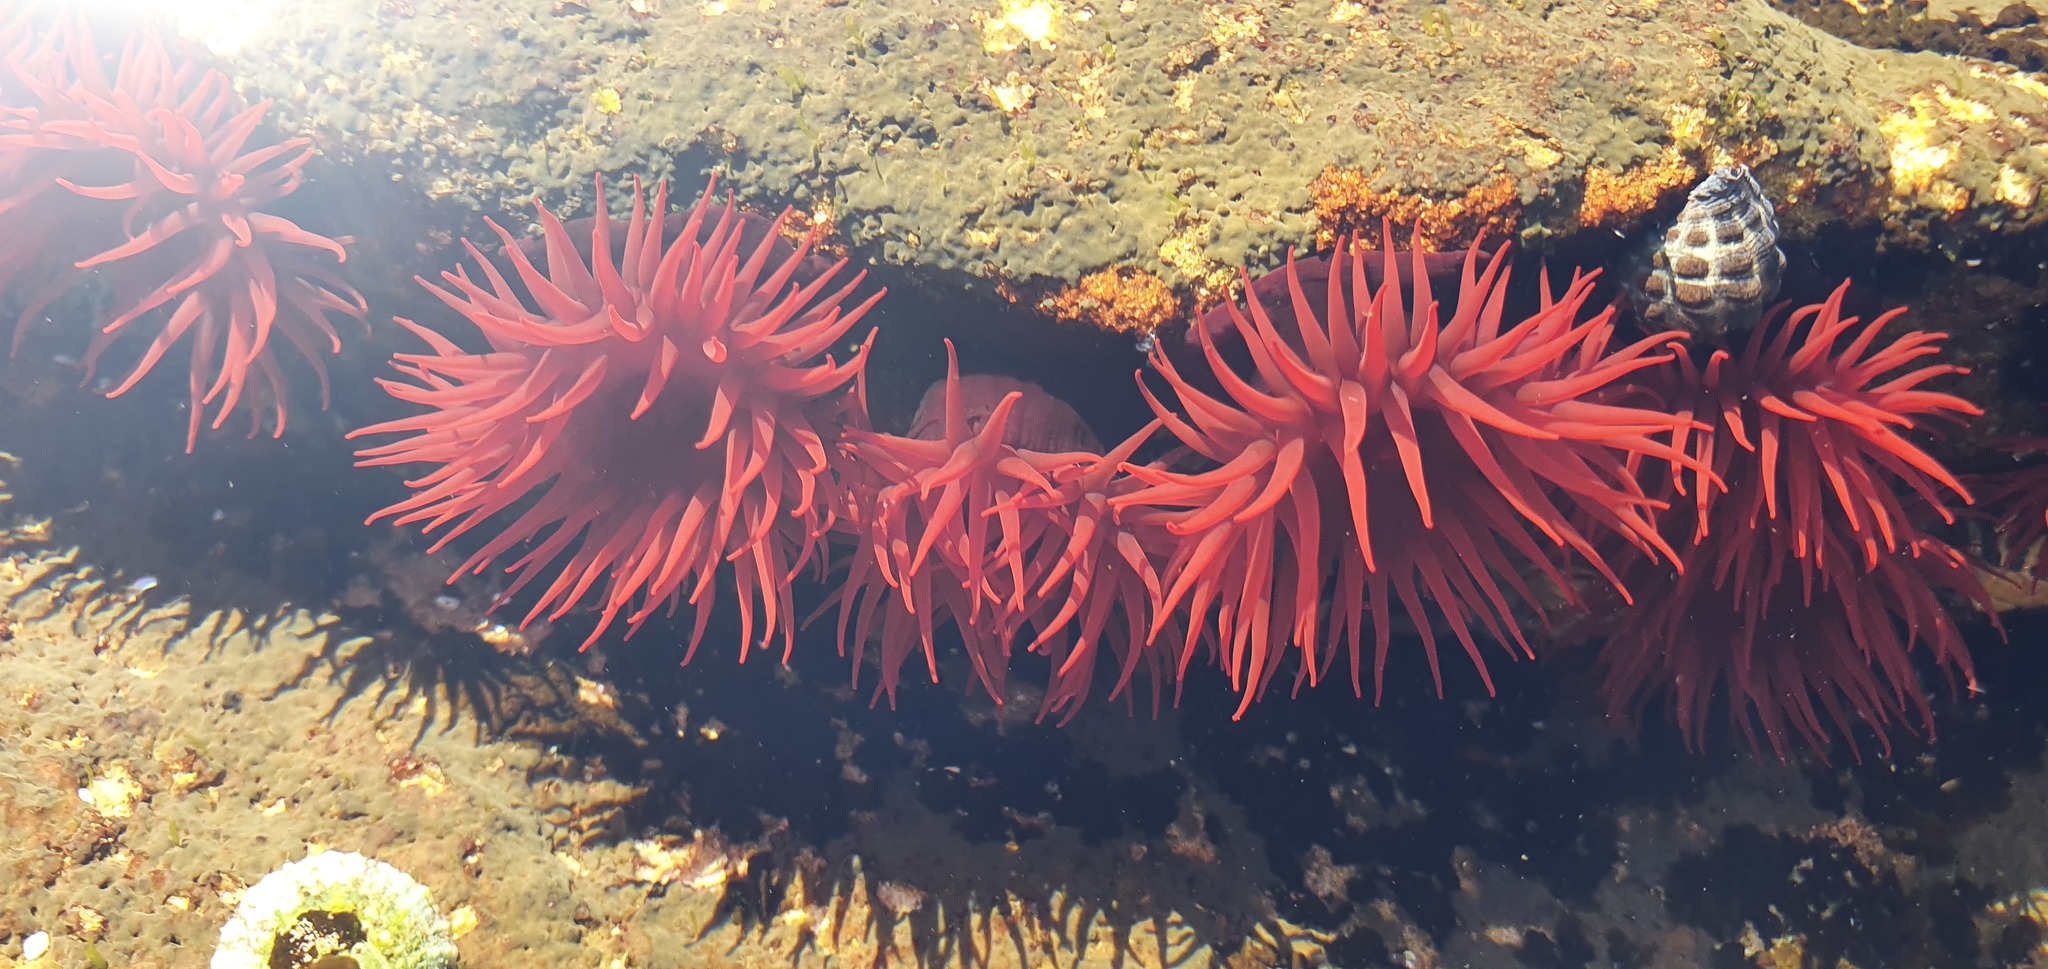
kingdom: Animalia
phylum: Cnidaria
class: Anthozoa
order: Actiniaria
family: Actiniidae
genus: Actinia
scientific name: Actinia tenebrosa
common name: Waratah anemone
